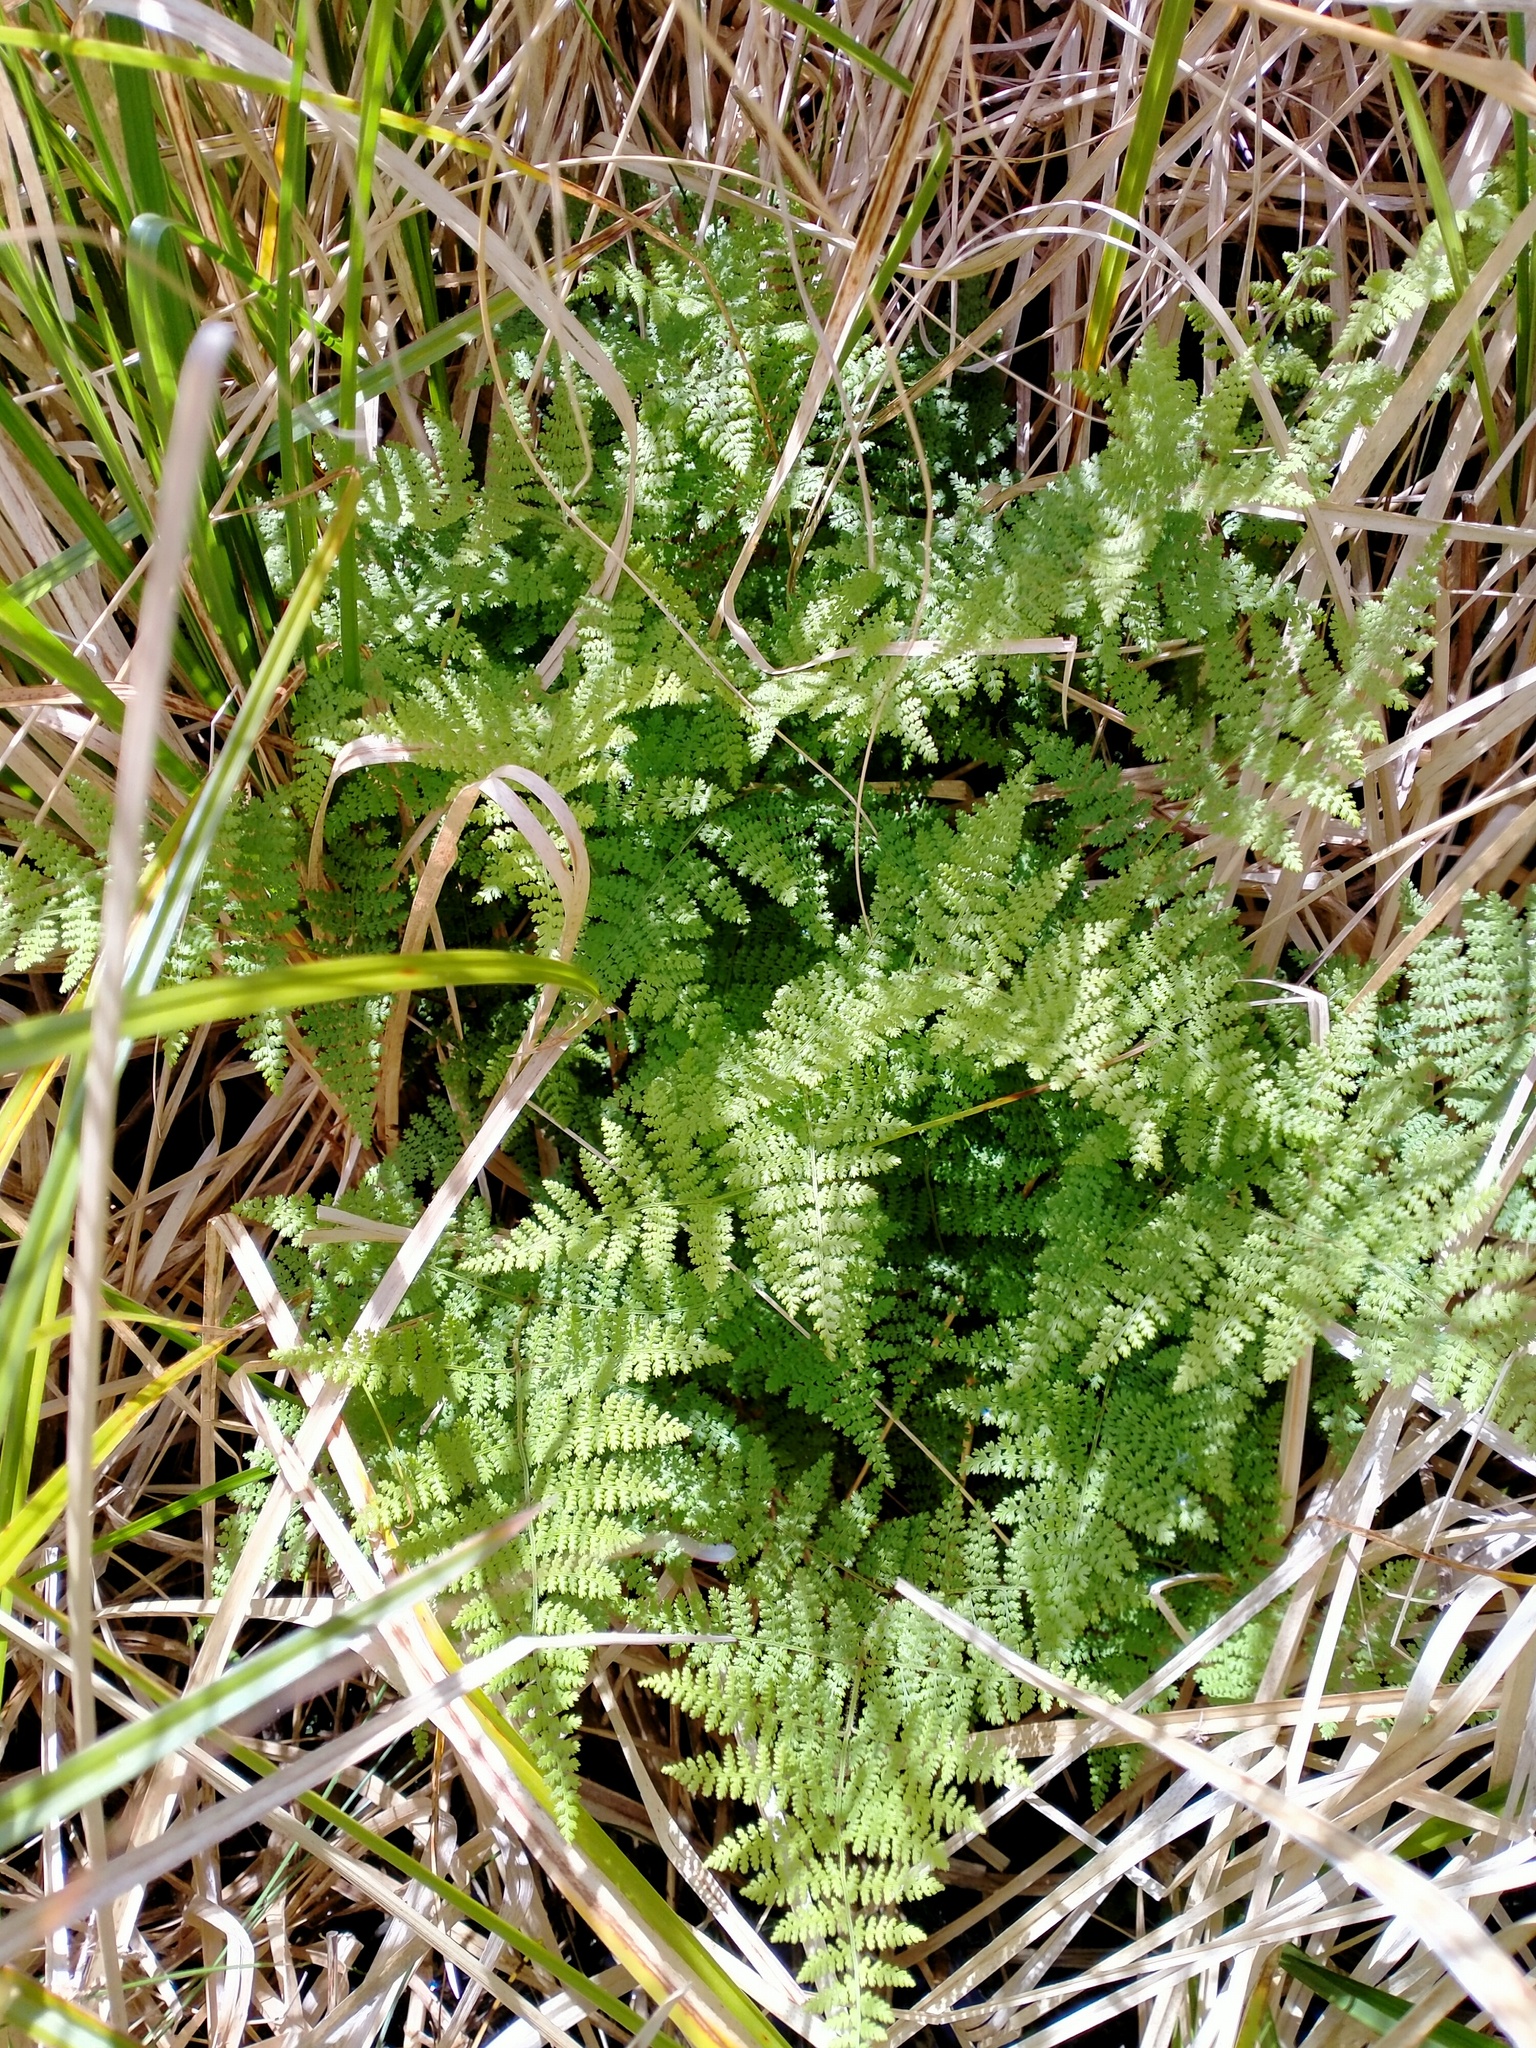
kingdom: Plantae
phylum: Tracheophyta
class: Polypodiopsida
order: Polypodiales
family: Dennstaedtiaceae
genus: Hypolepis
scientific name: Hypolepis millefolium
